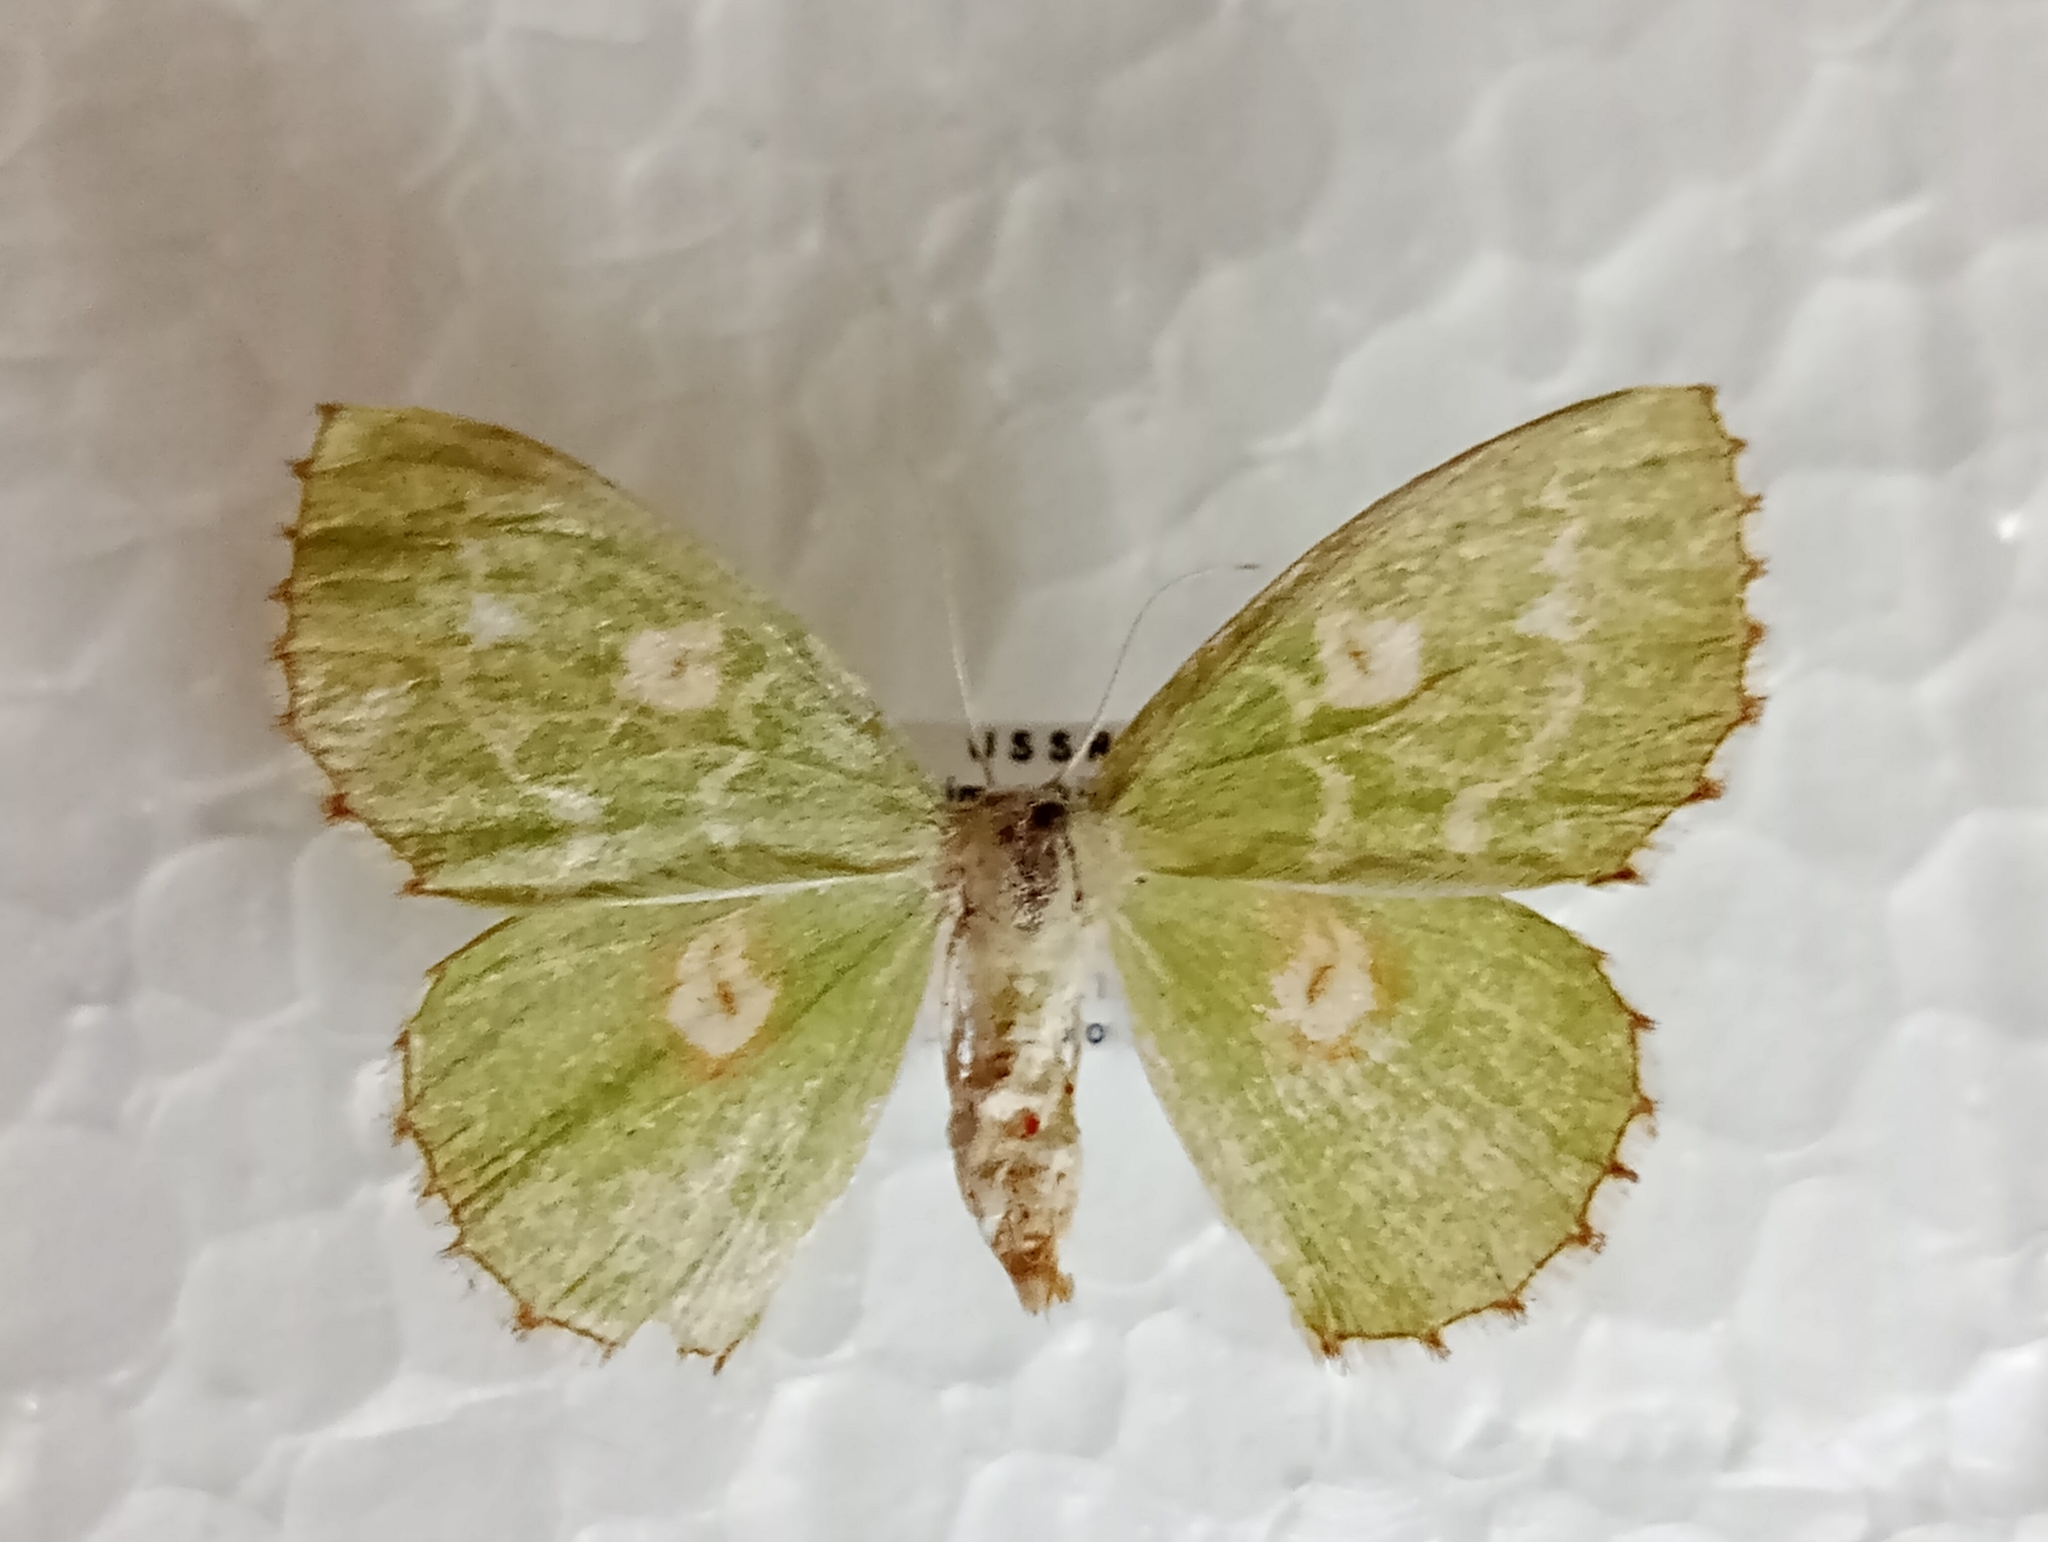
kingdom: Animalia
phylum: Arthropoda
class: Insecta
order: Lepidoptera
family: Geometridae
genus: Thetidia
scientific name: Thetidia albocostaria
